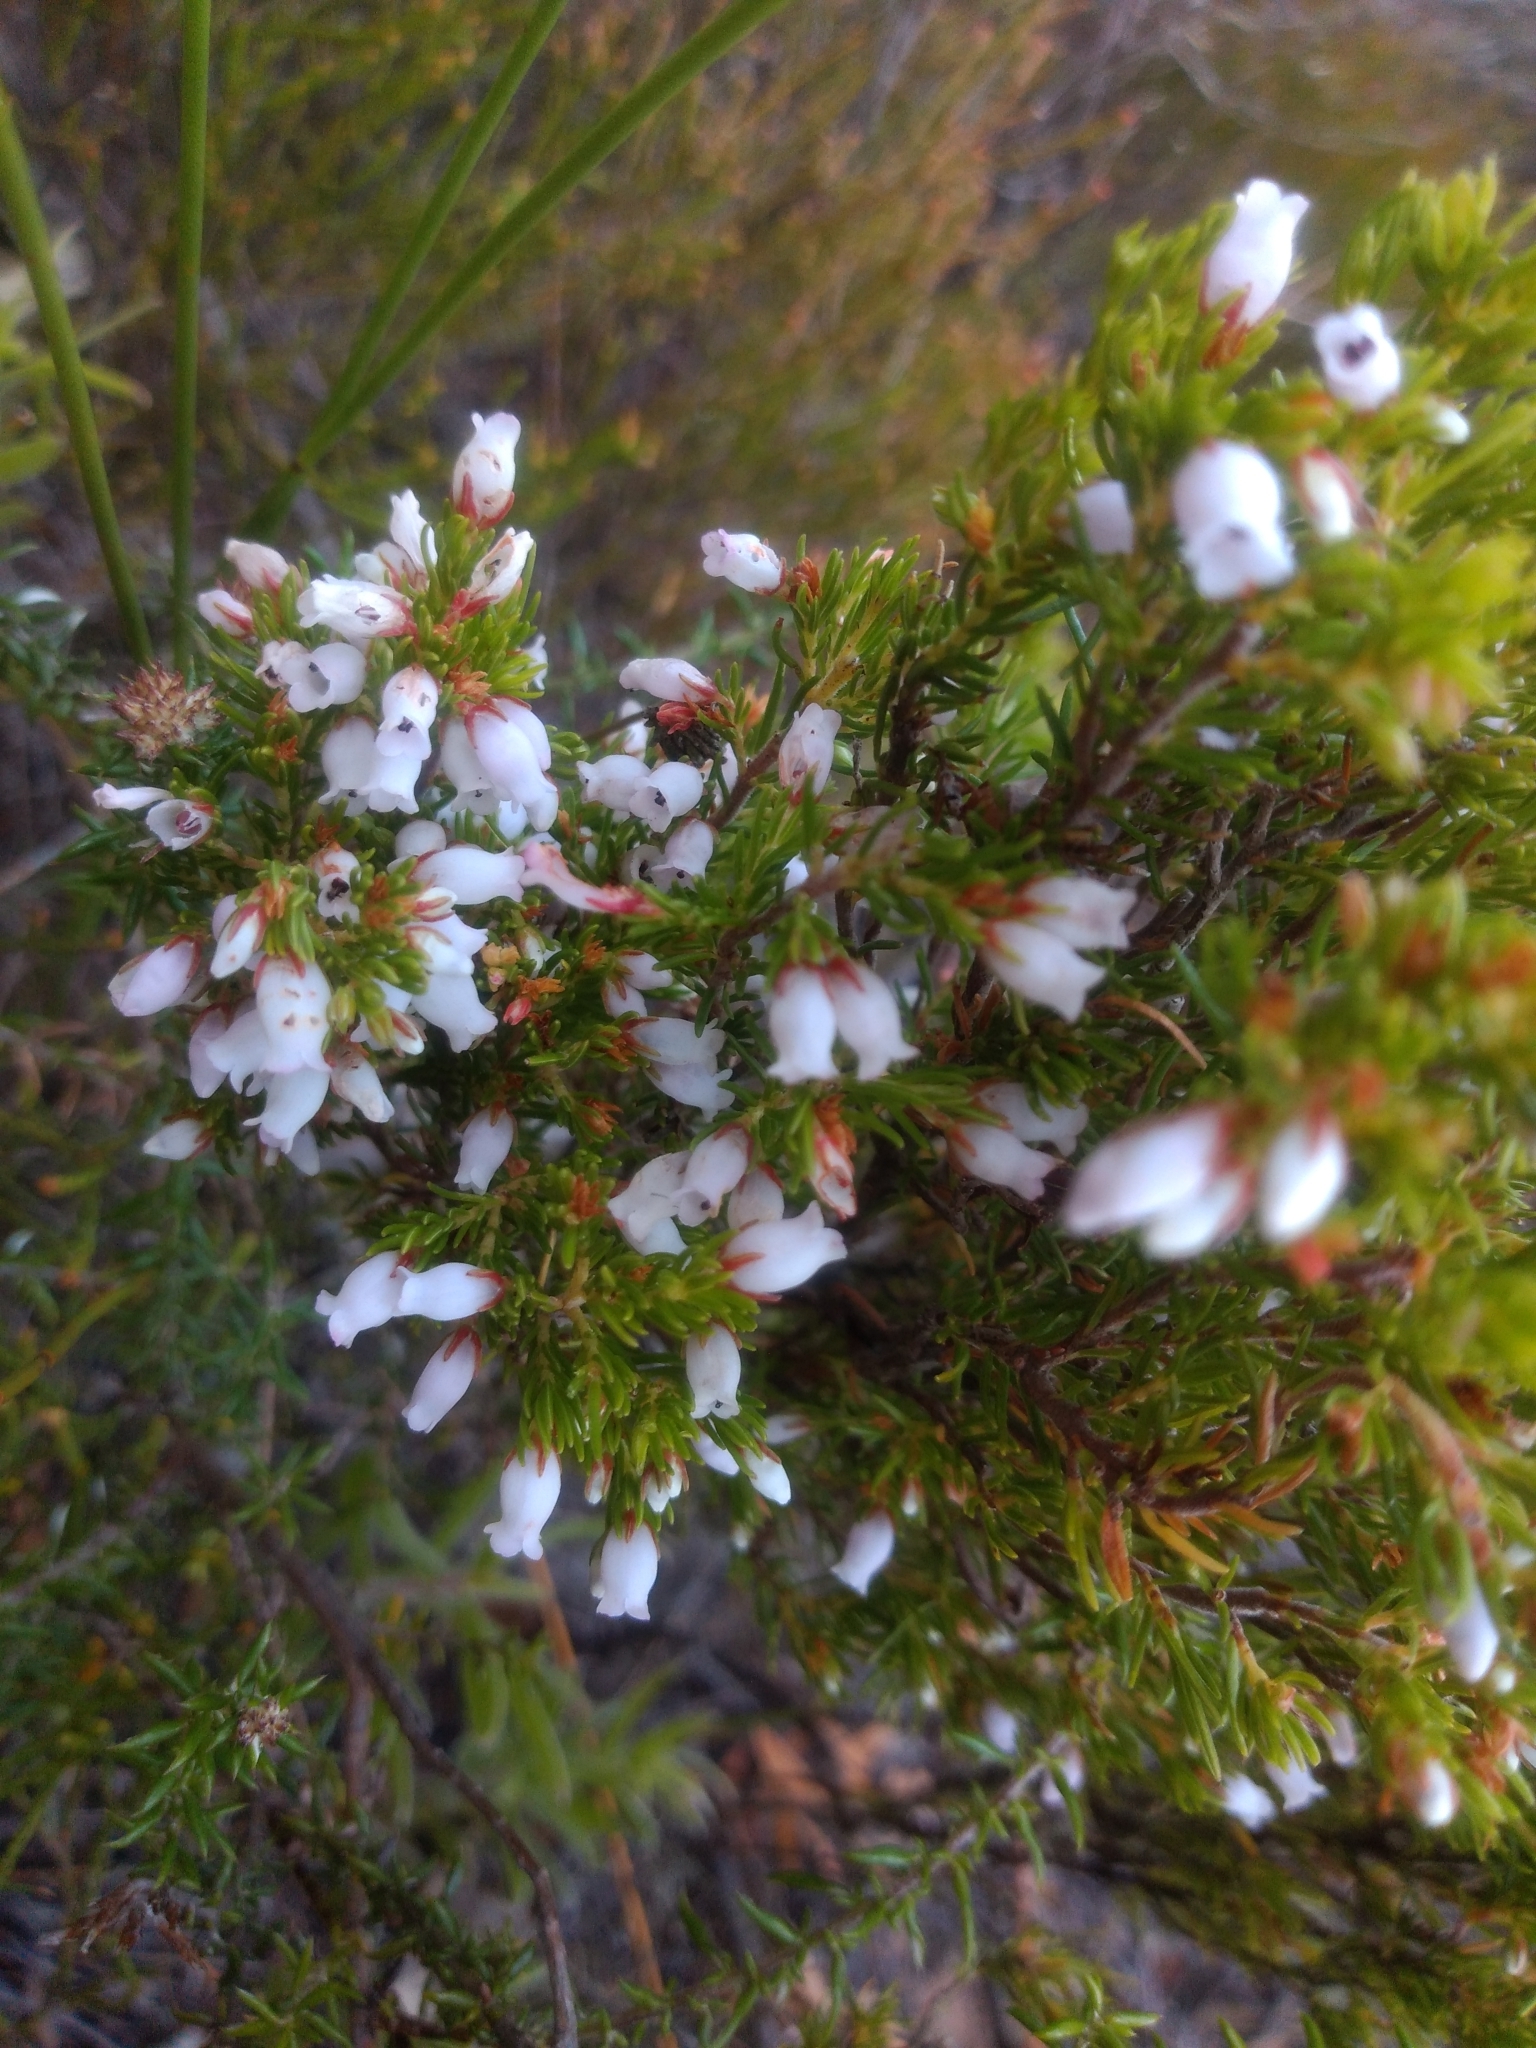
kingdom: Plantae
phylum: Tracheophyta
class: Magnoliopsida
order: Ericales
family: Ericaceae
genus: Erica
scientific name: Erica sitiens
